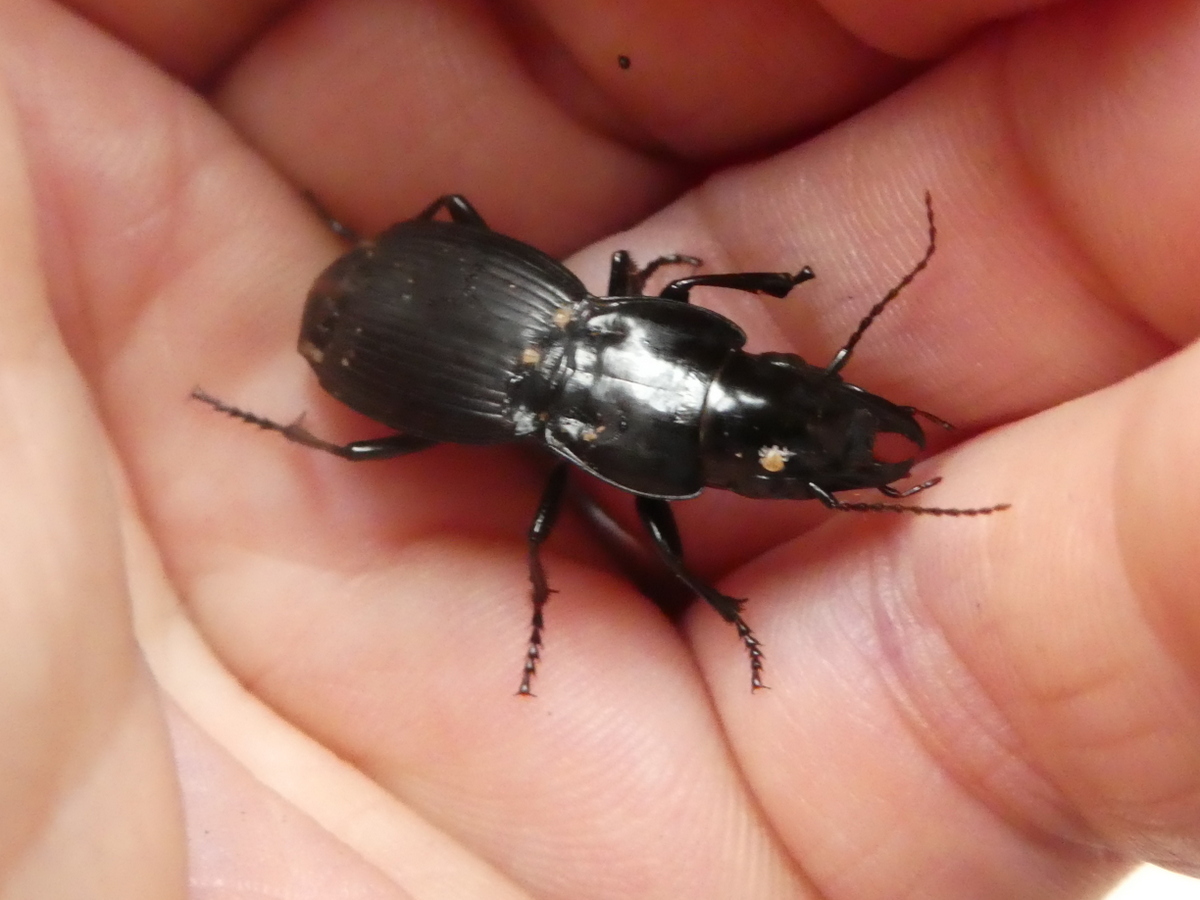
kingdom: Animalia
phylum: Arthropoda
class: Insecta
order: Coleoptera
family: Carabidae
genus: Plocamostethus
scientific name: Plocamostethus planiusculus
